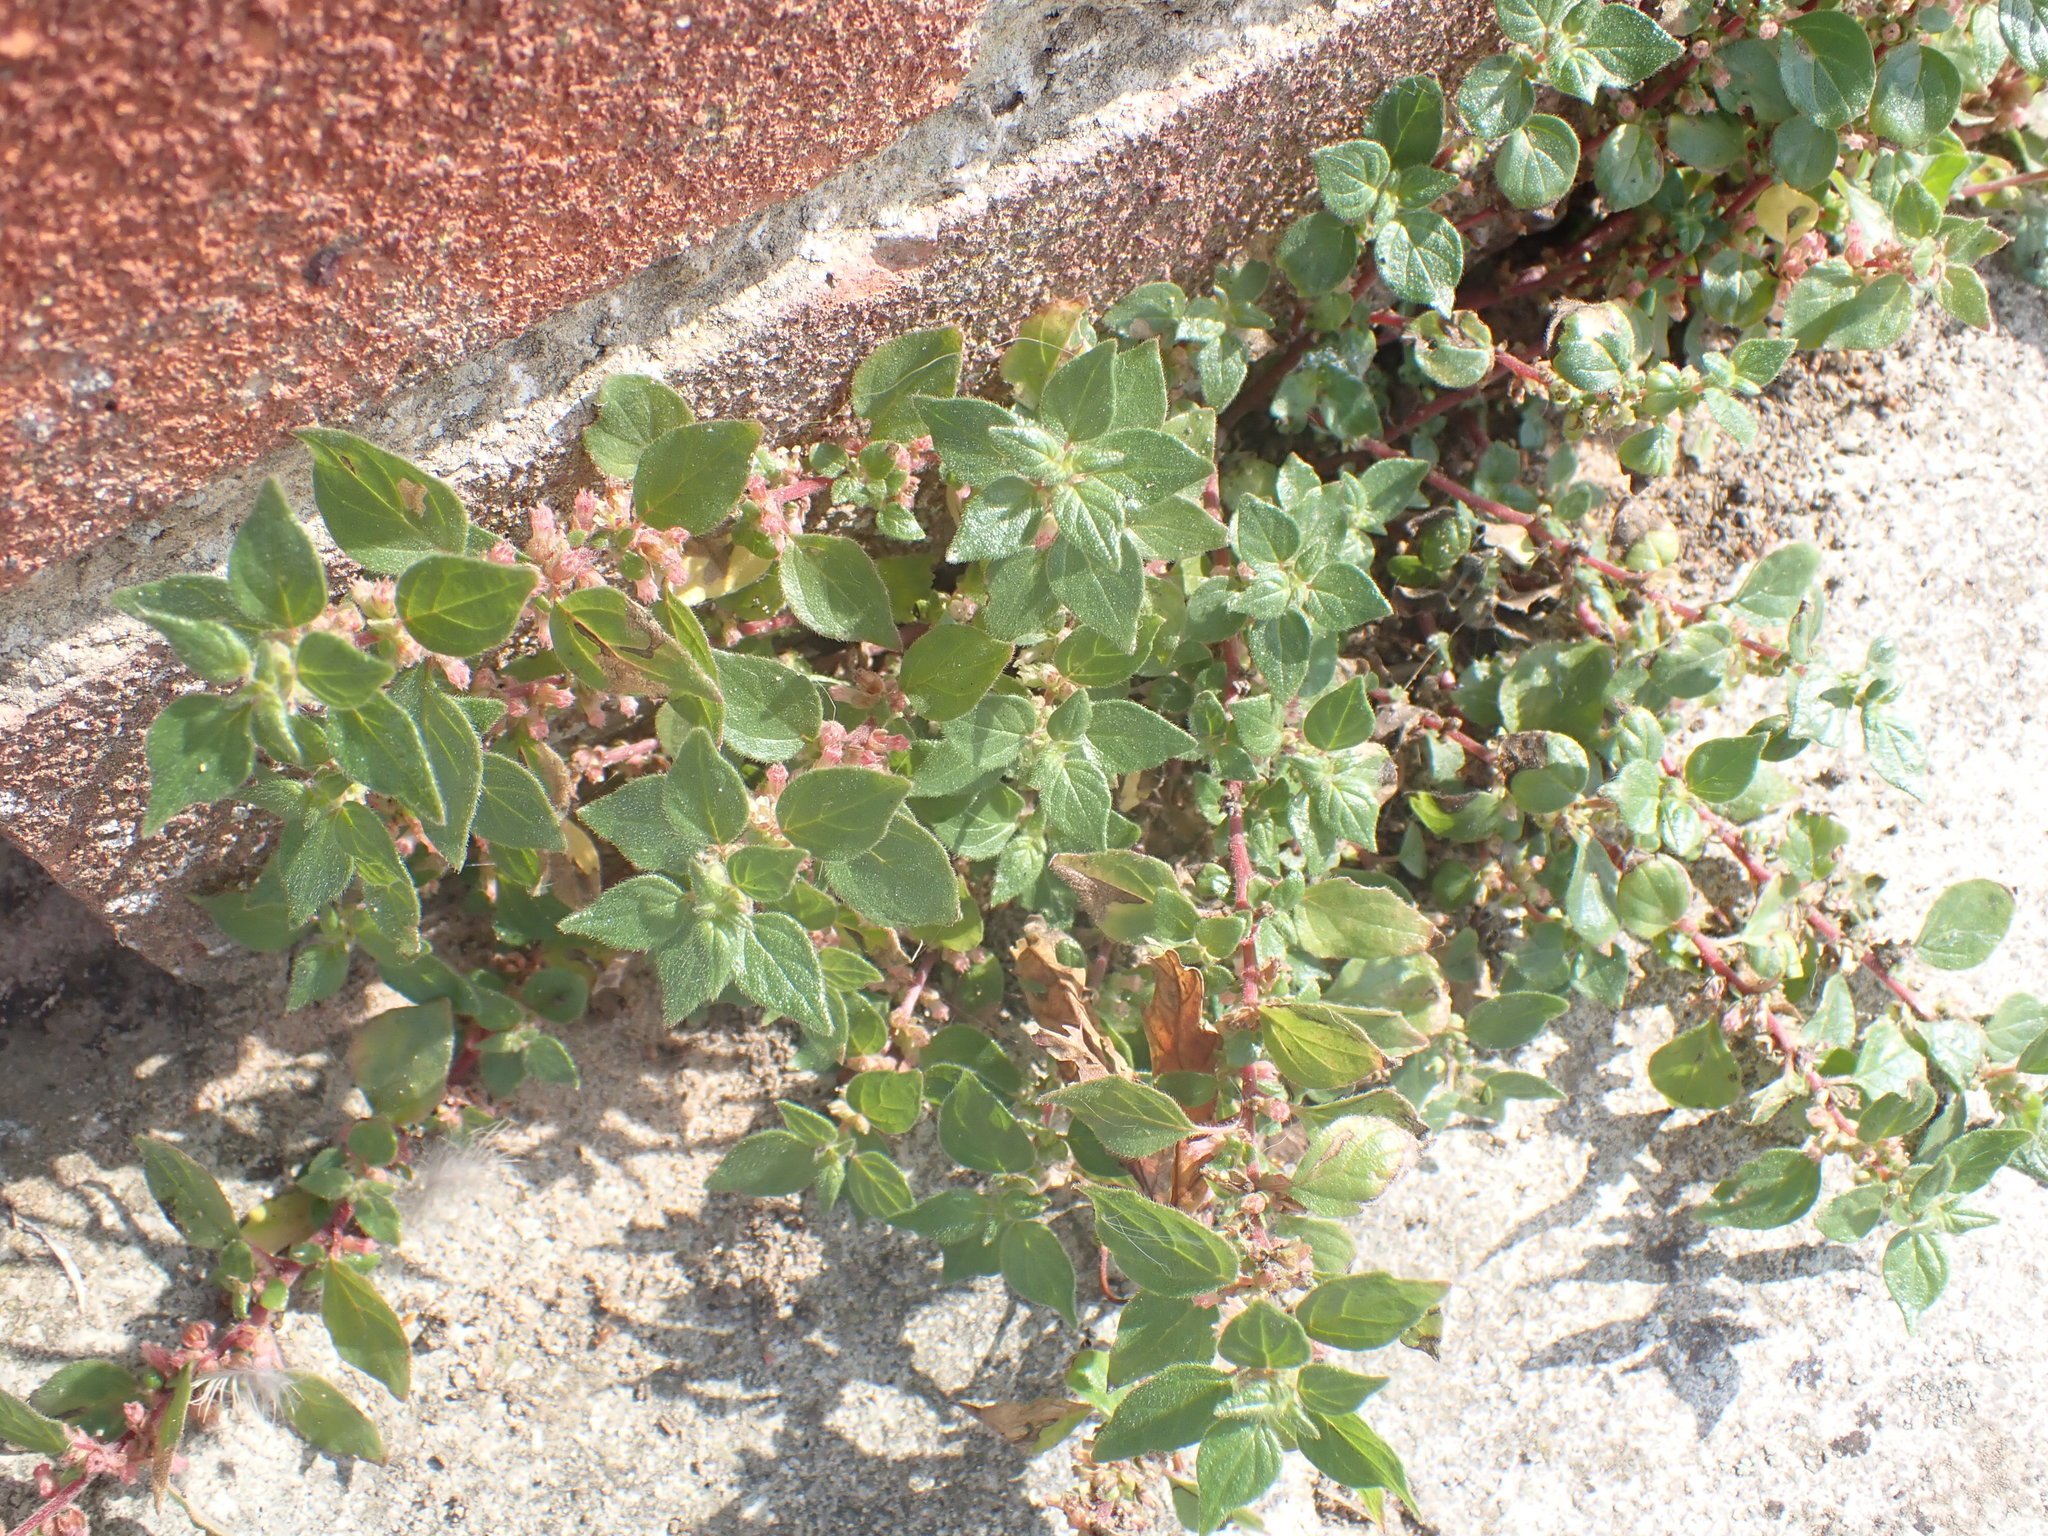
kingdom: Plantae
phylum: Tracheophyta
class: Magnoliopsida
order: Rosales
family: Urticaceae
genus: Parietaria
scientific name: Parietaria judaica
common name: Pellitory-of-the-wall
